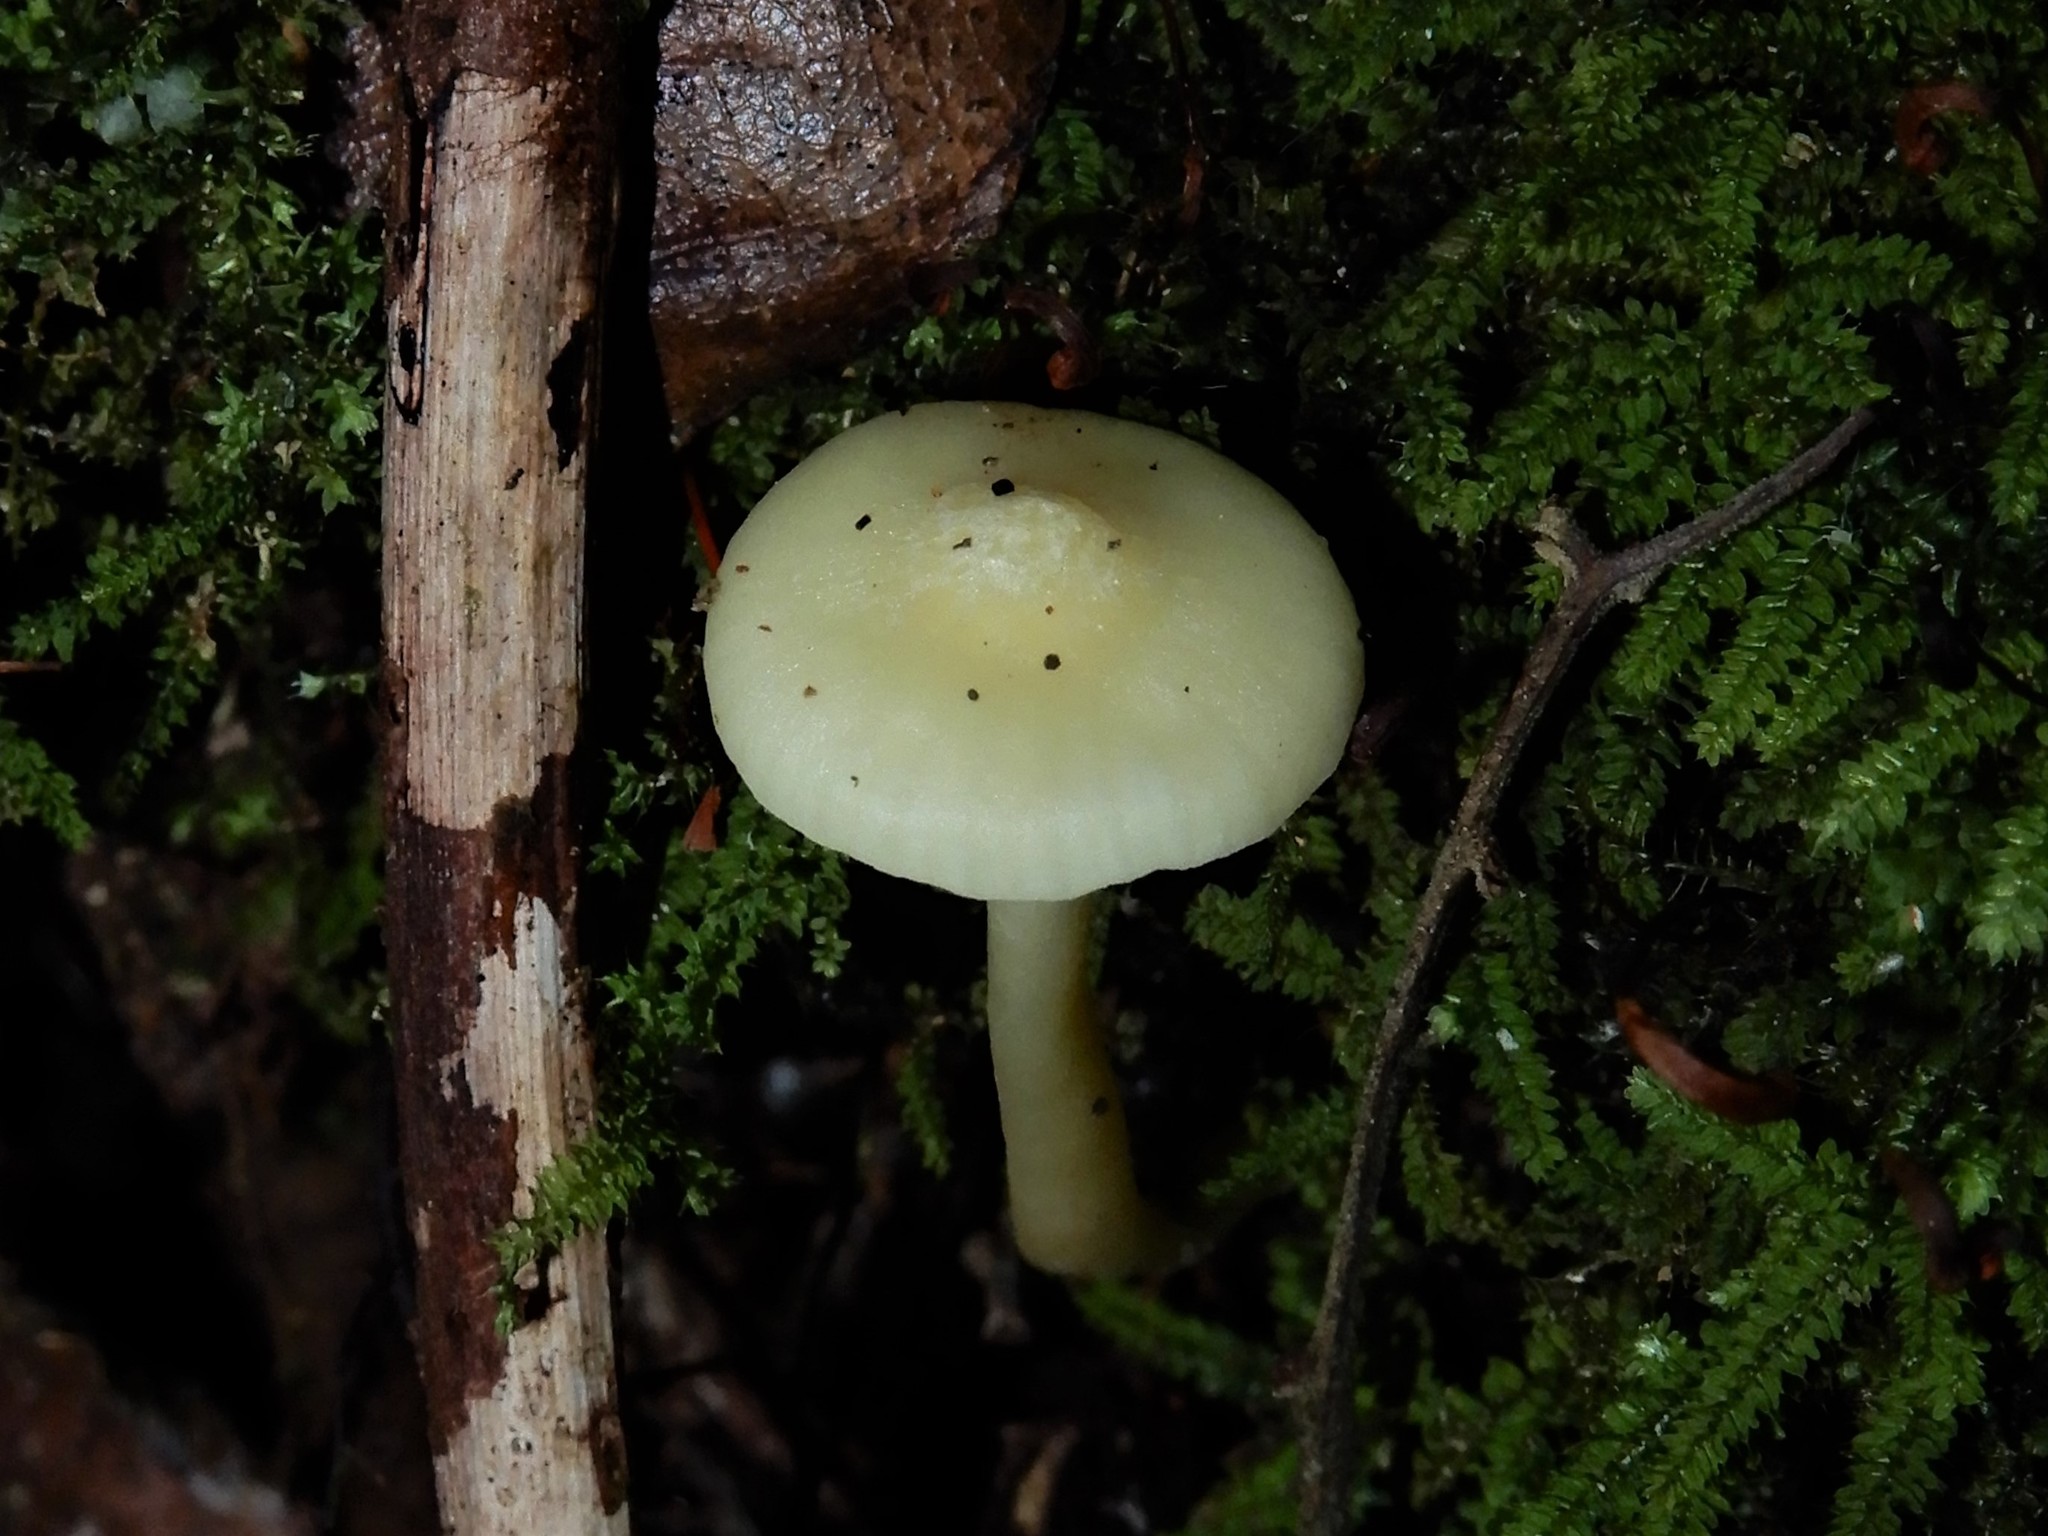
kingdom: Fungi
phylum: Basidiomycota
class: Agaricomycetes
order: Agaricales
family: Hygrophoraceae
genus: Cuphophyllus
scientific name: Cuphophyllus
